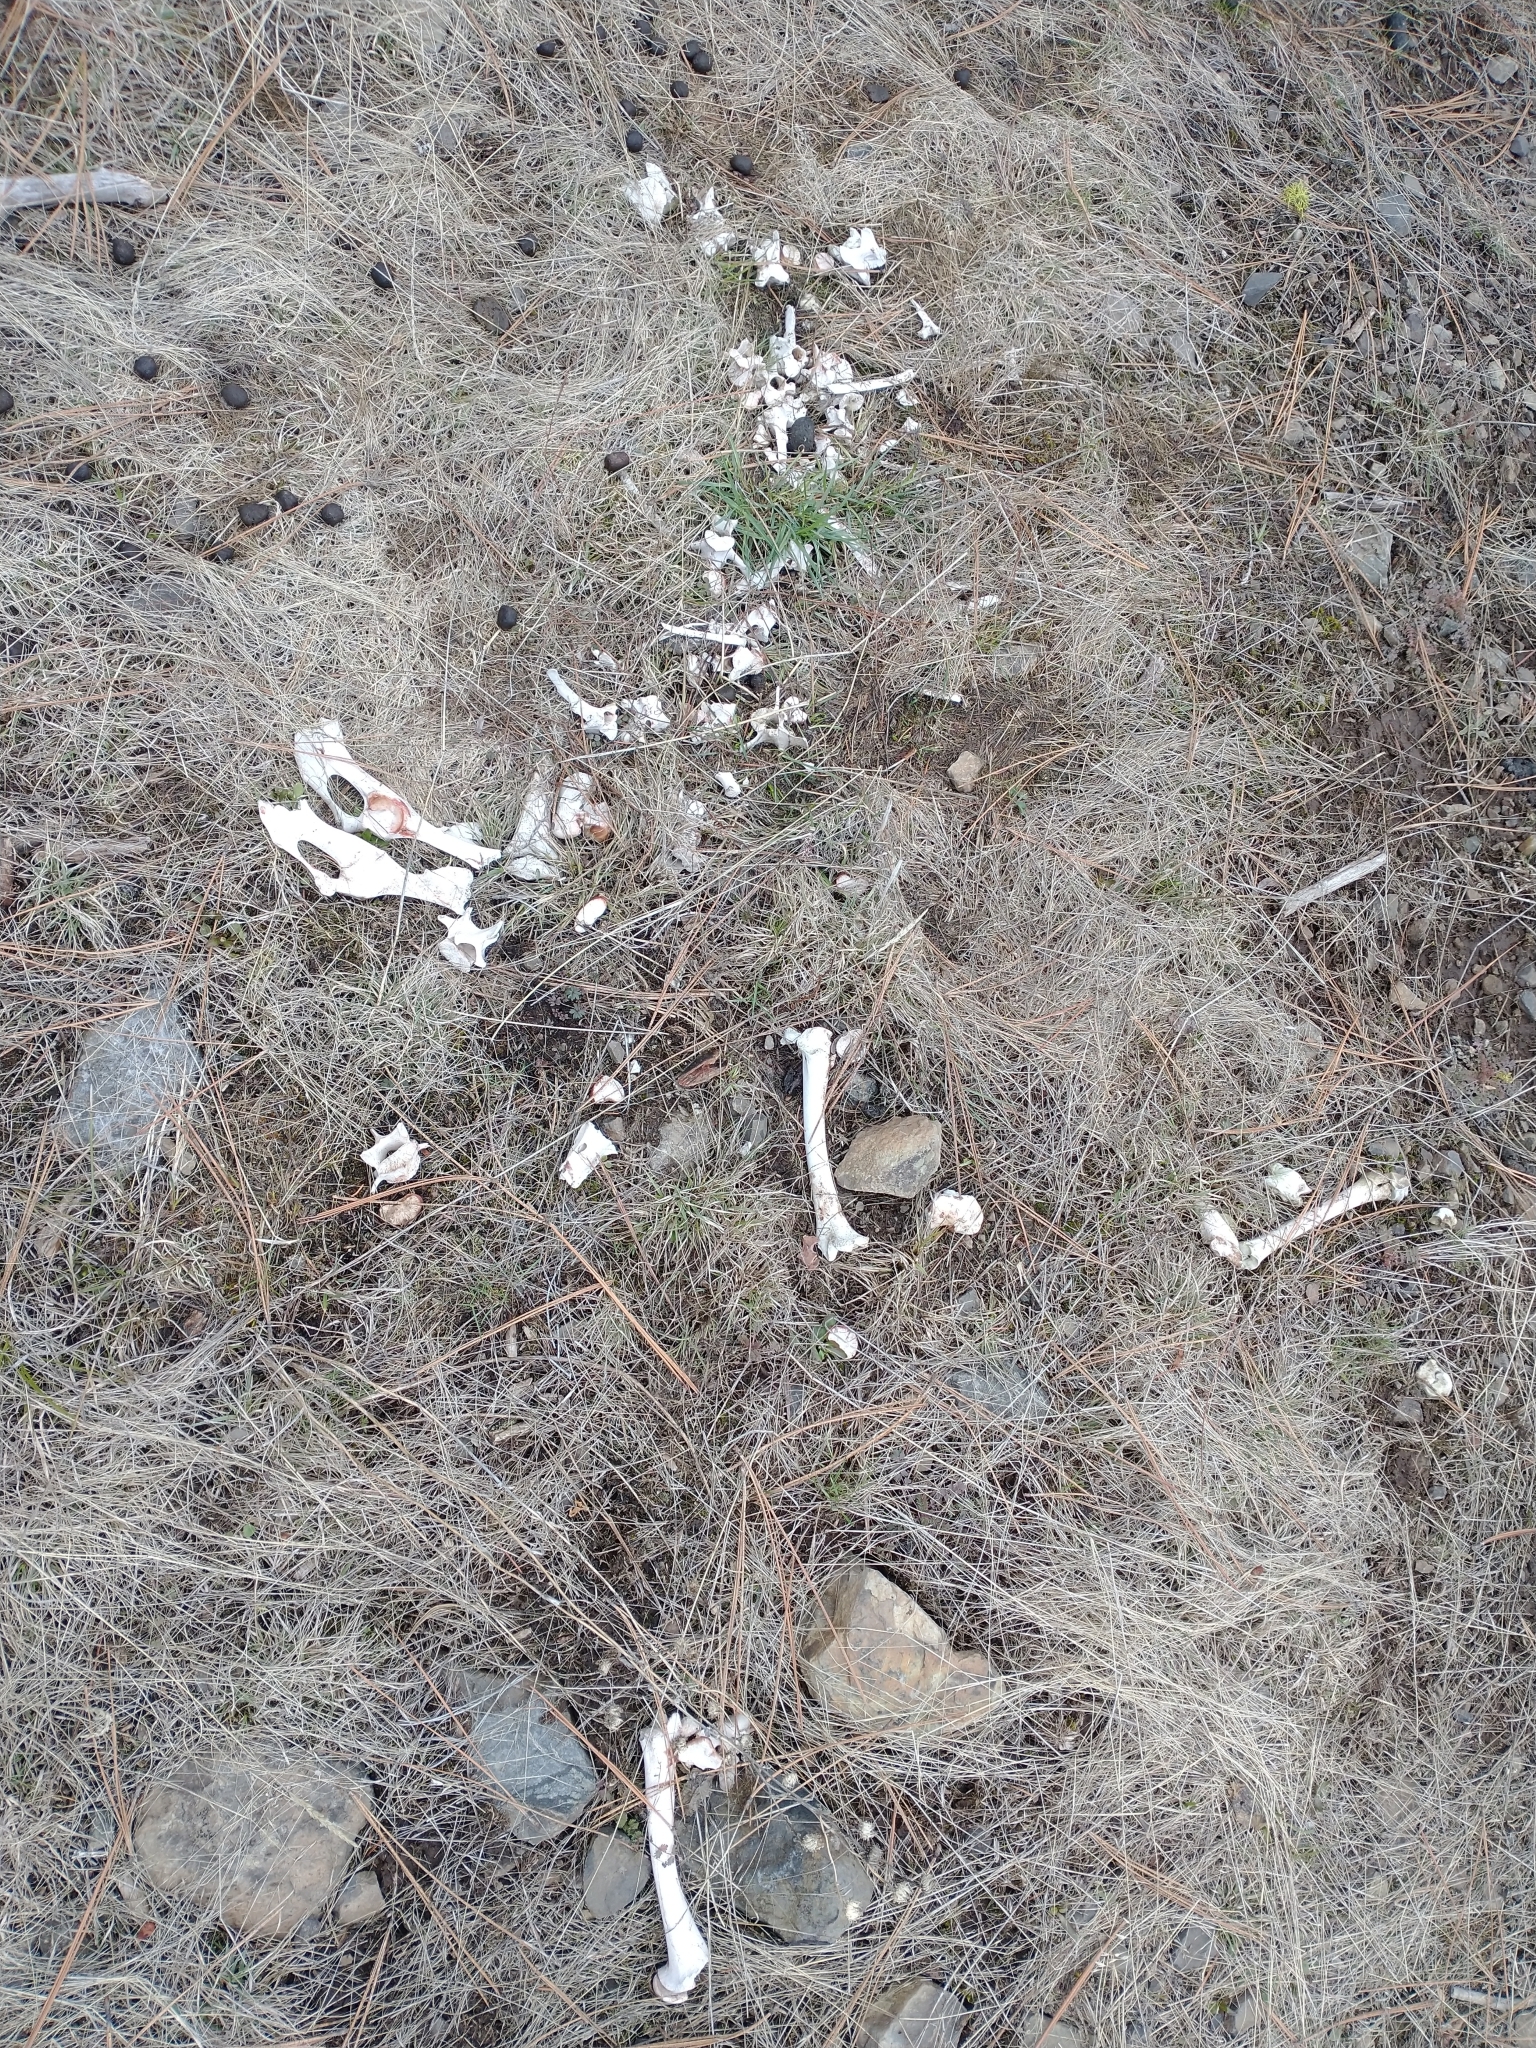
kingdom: Animalia
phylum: Chordata
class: Mammalia
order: Artiodactyla
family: Cervidae
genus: Odocoileus
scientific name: Odocoileus hemionus
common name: Mule deer
